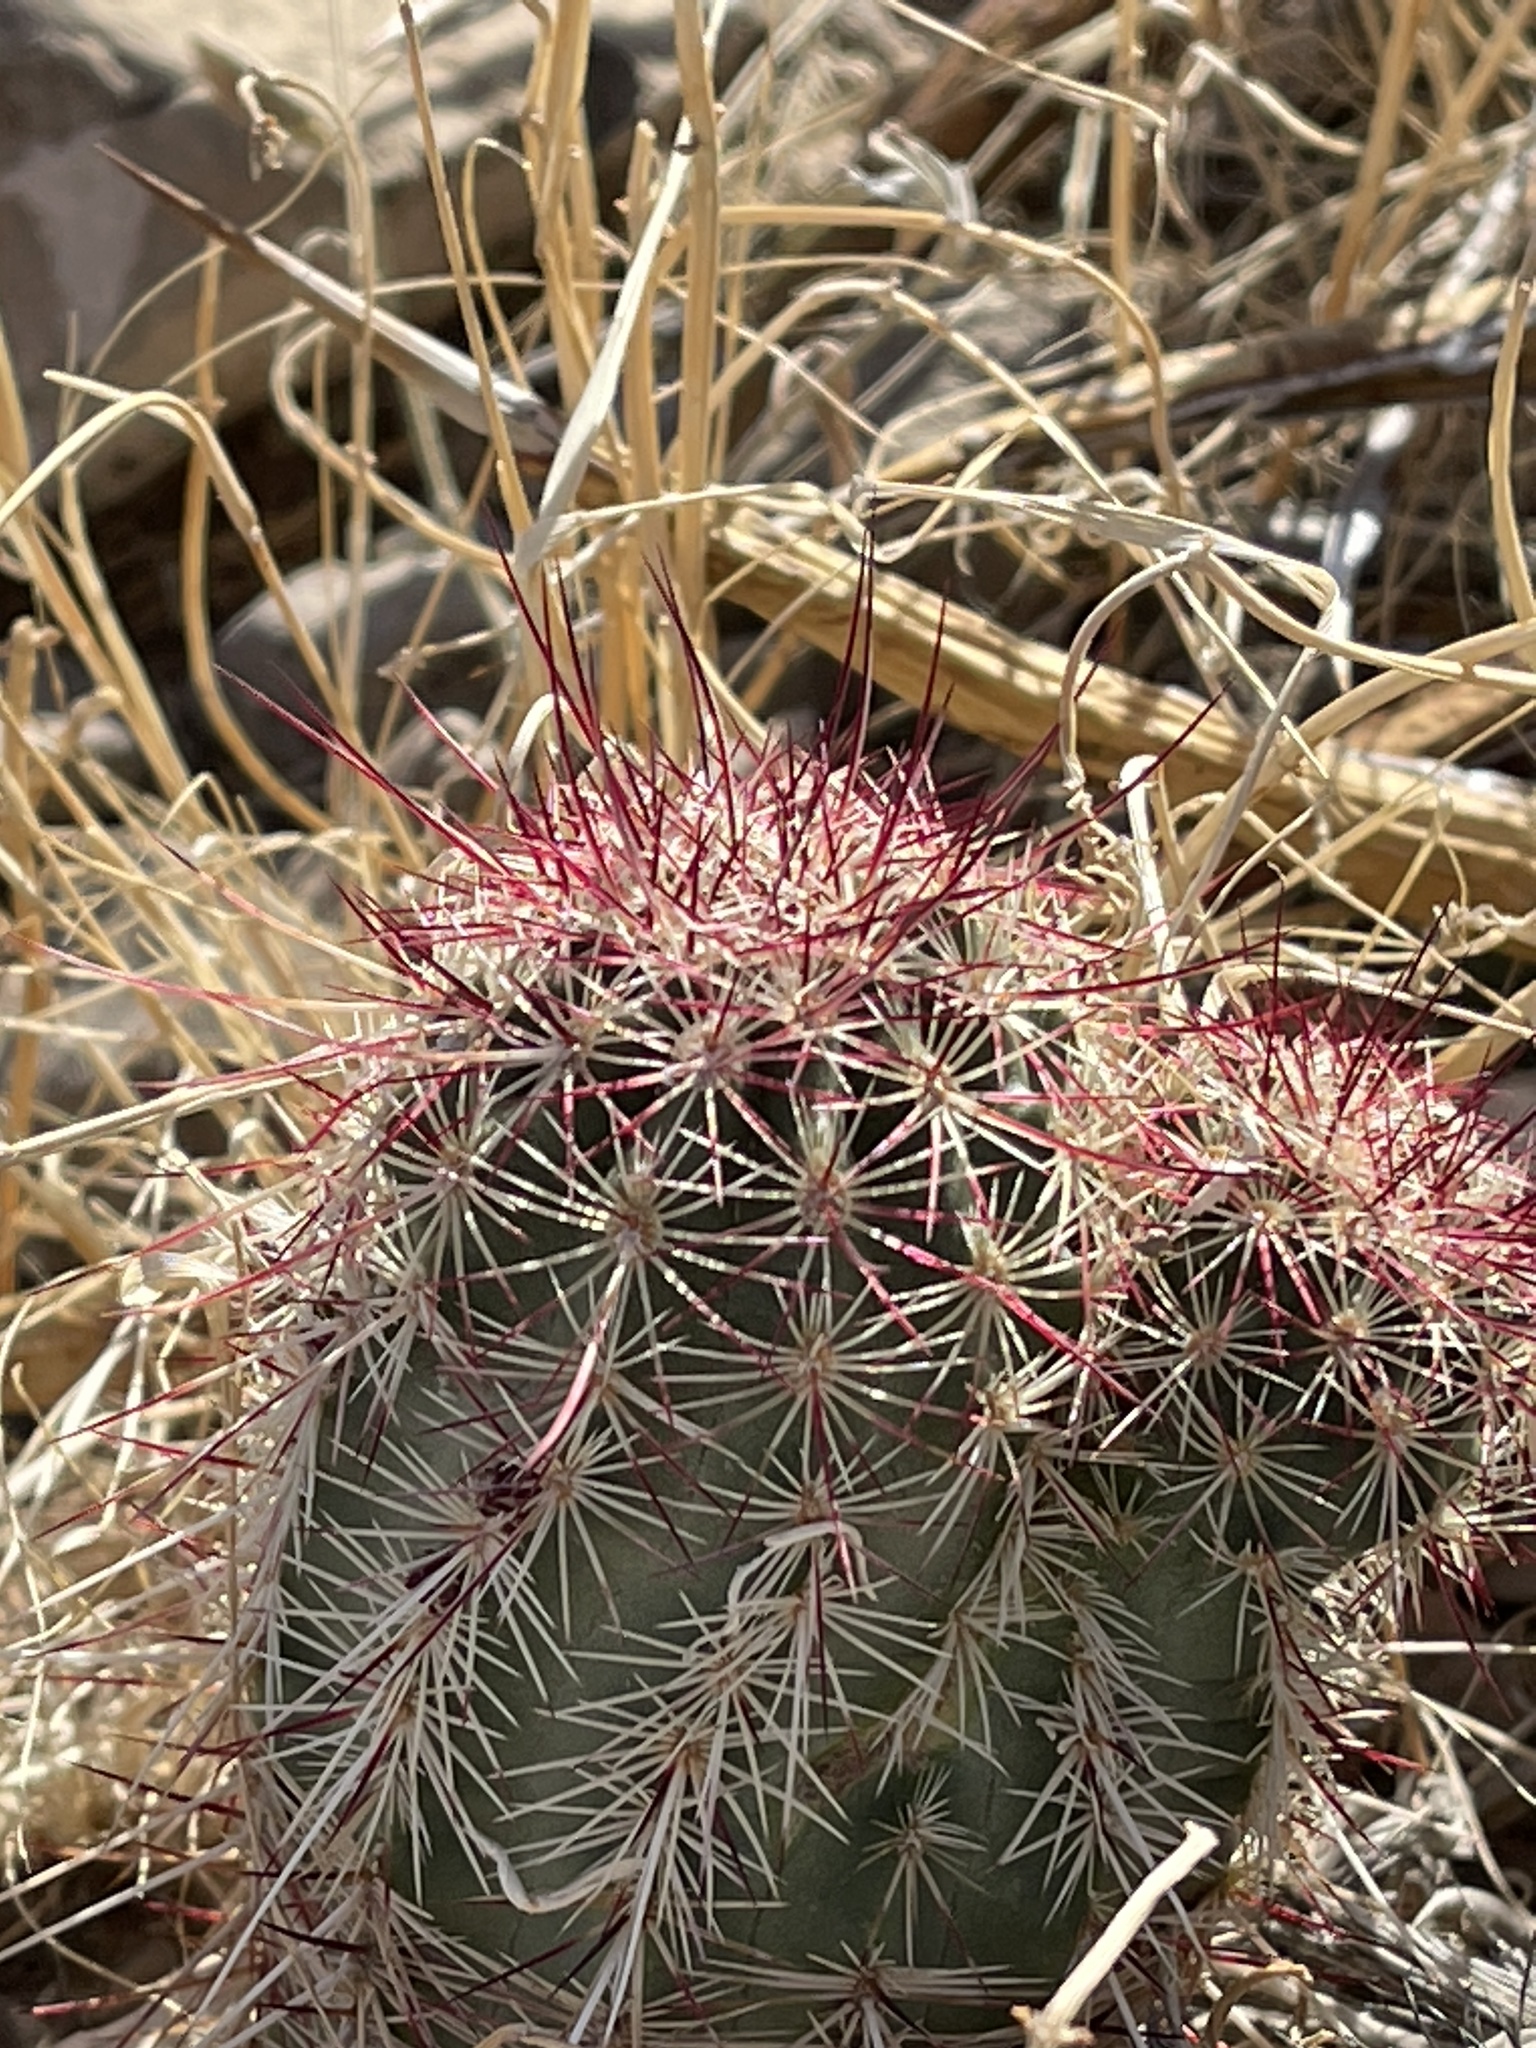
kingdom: Plantae
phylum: Tracheophyta
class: Magnoliopsida
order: Caryophyllales
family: Cactaceae
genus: Echinocereus
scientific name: Echinocereus viridiflorus
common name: Nylon hedgehog cactus
